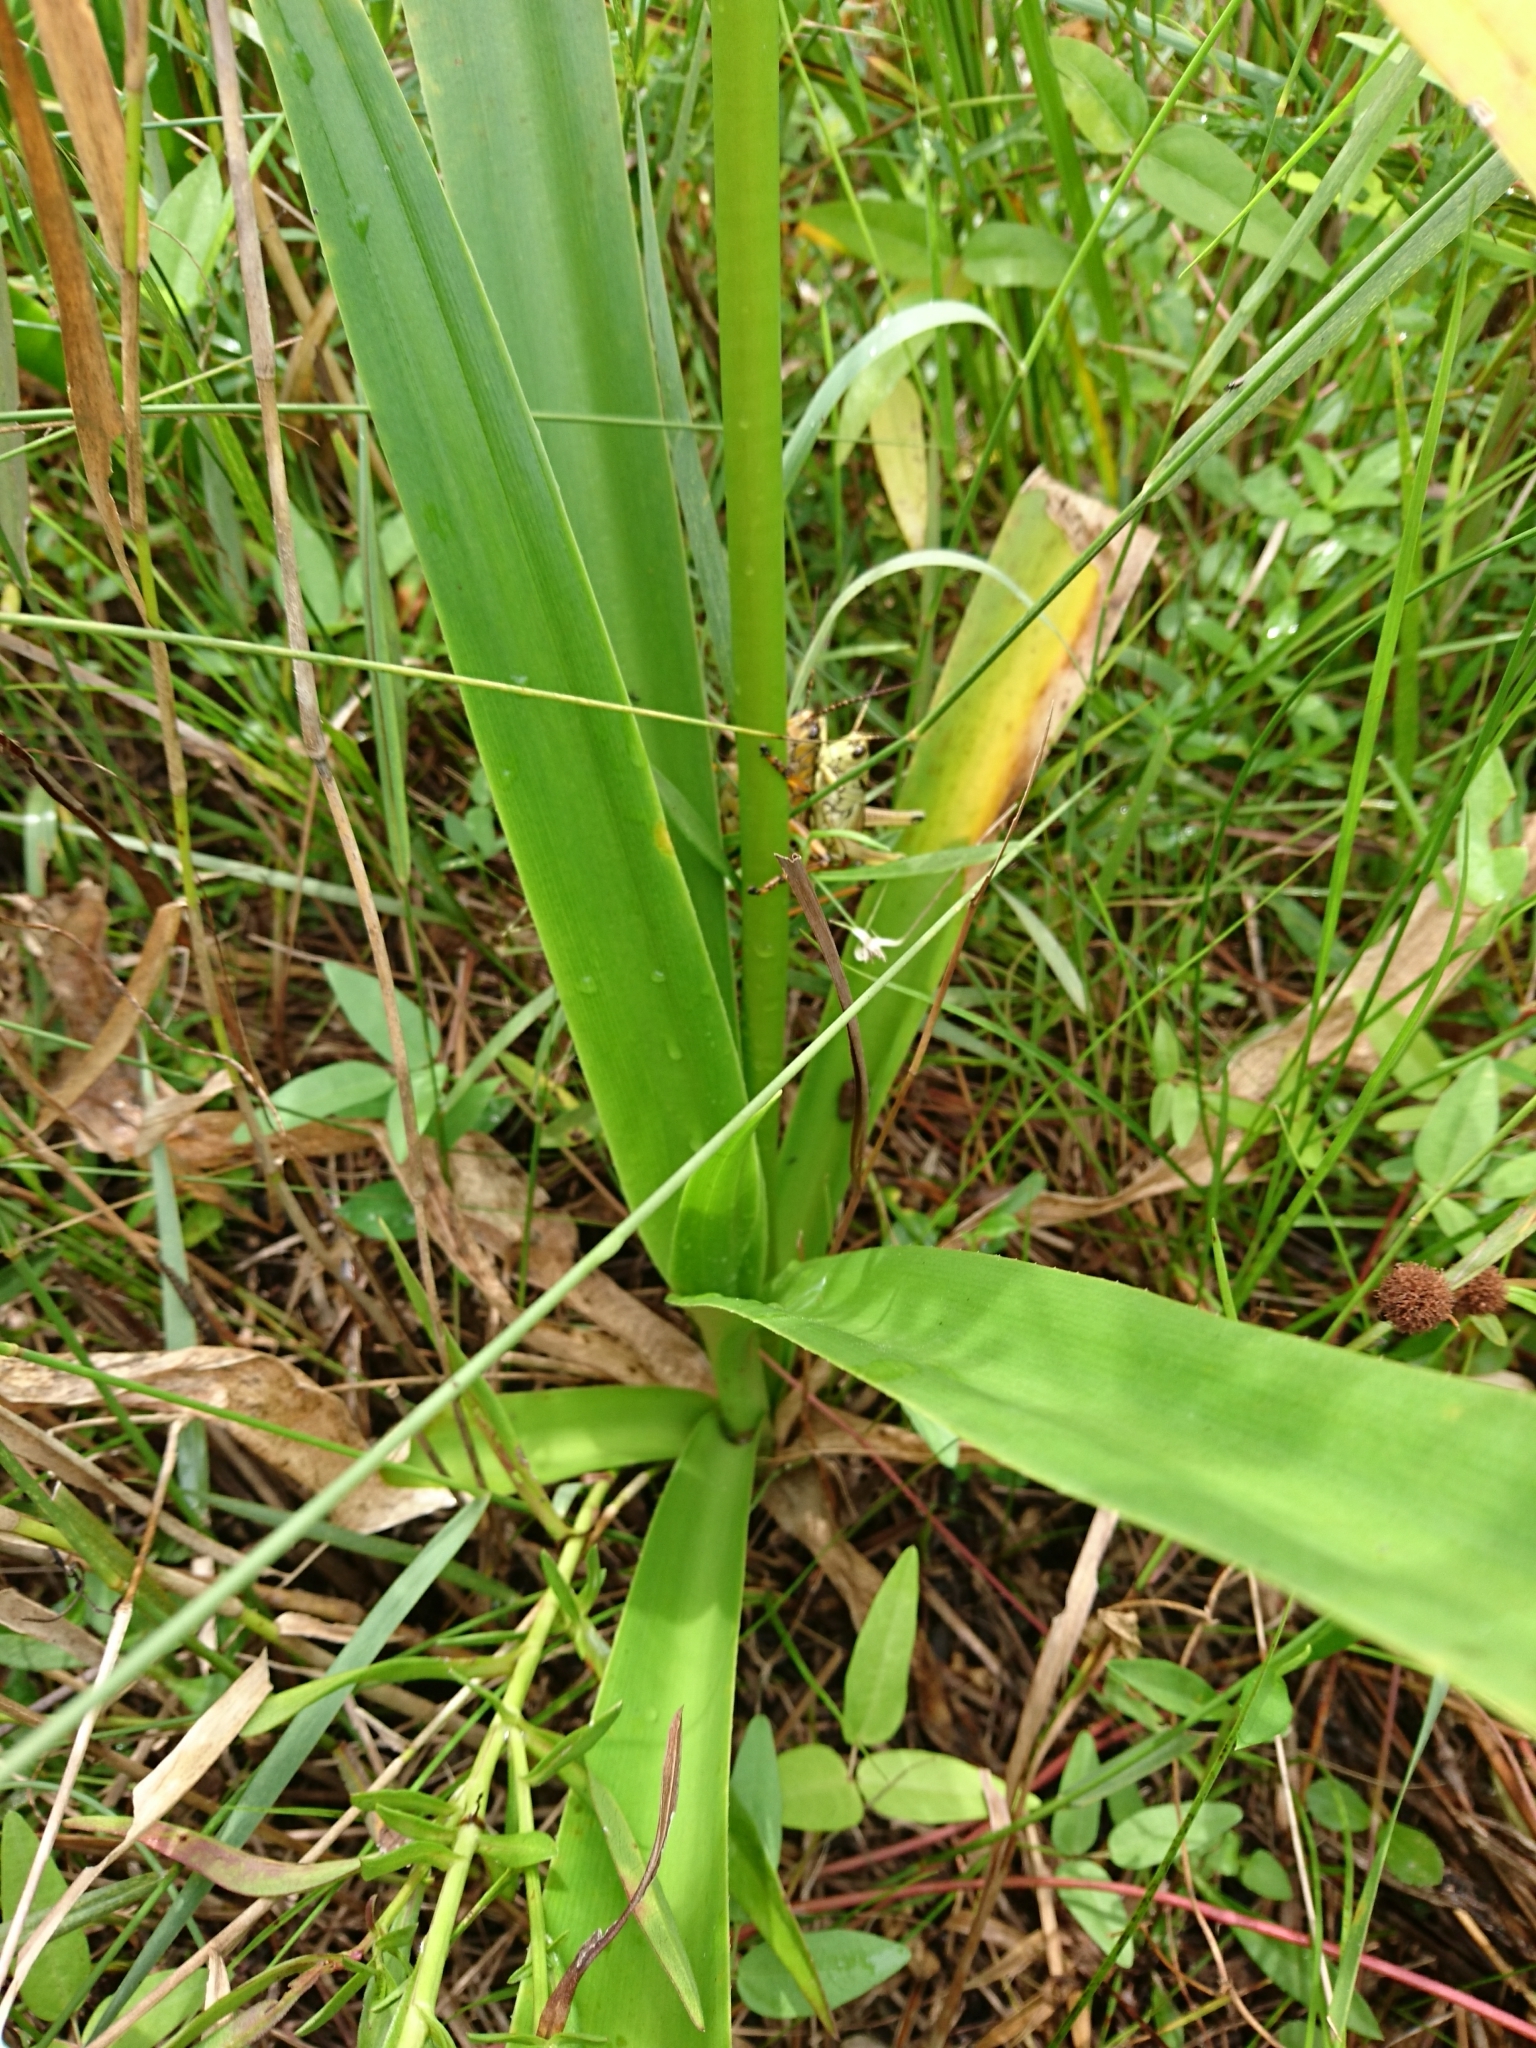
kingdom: Plantae
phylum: Tracheophyta
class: Liliopsida
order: Asparagales
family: Amaryllidaceae
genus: Crinum
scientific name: Crinum americanum
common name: Florida swamp-lily
